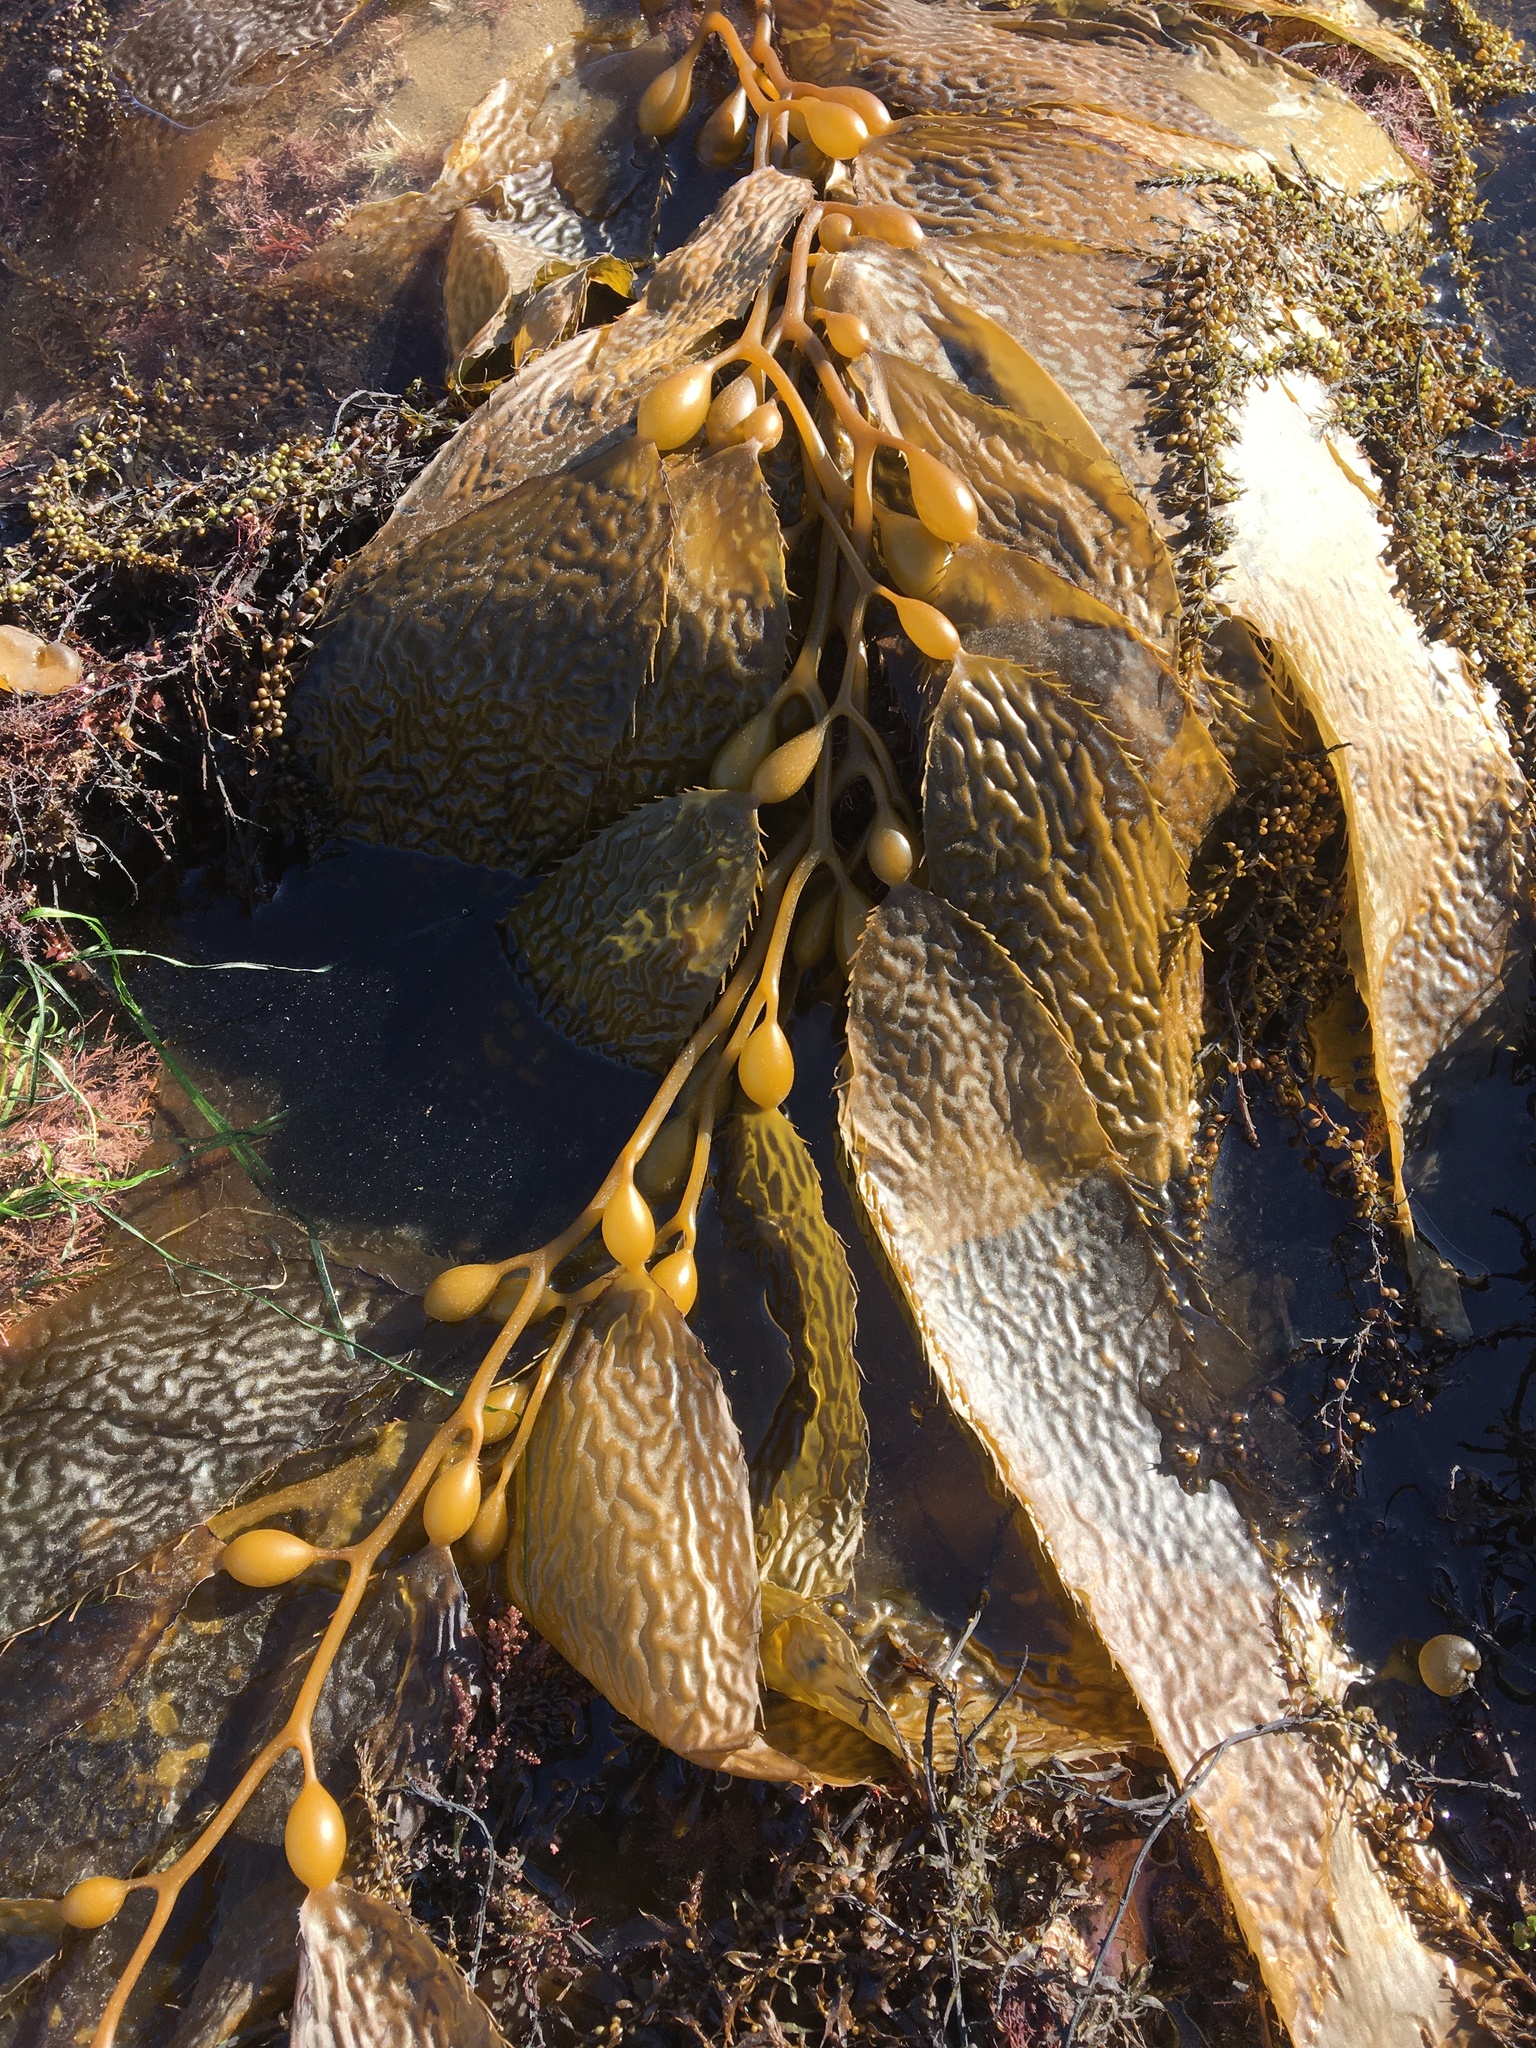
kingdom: Chromista
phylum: Ochrophyta
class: Phaeophyceae
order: Laminariales
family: Laminariaceae
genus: Macrocystis
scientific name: Macrocystis pyrifera
